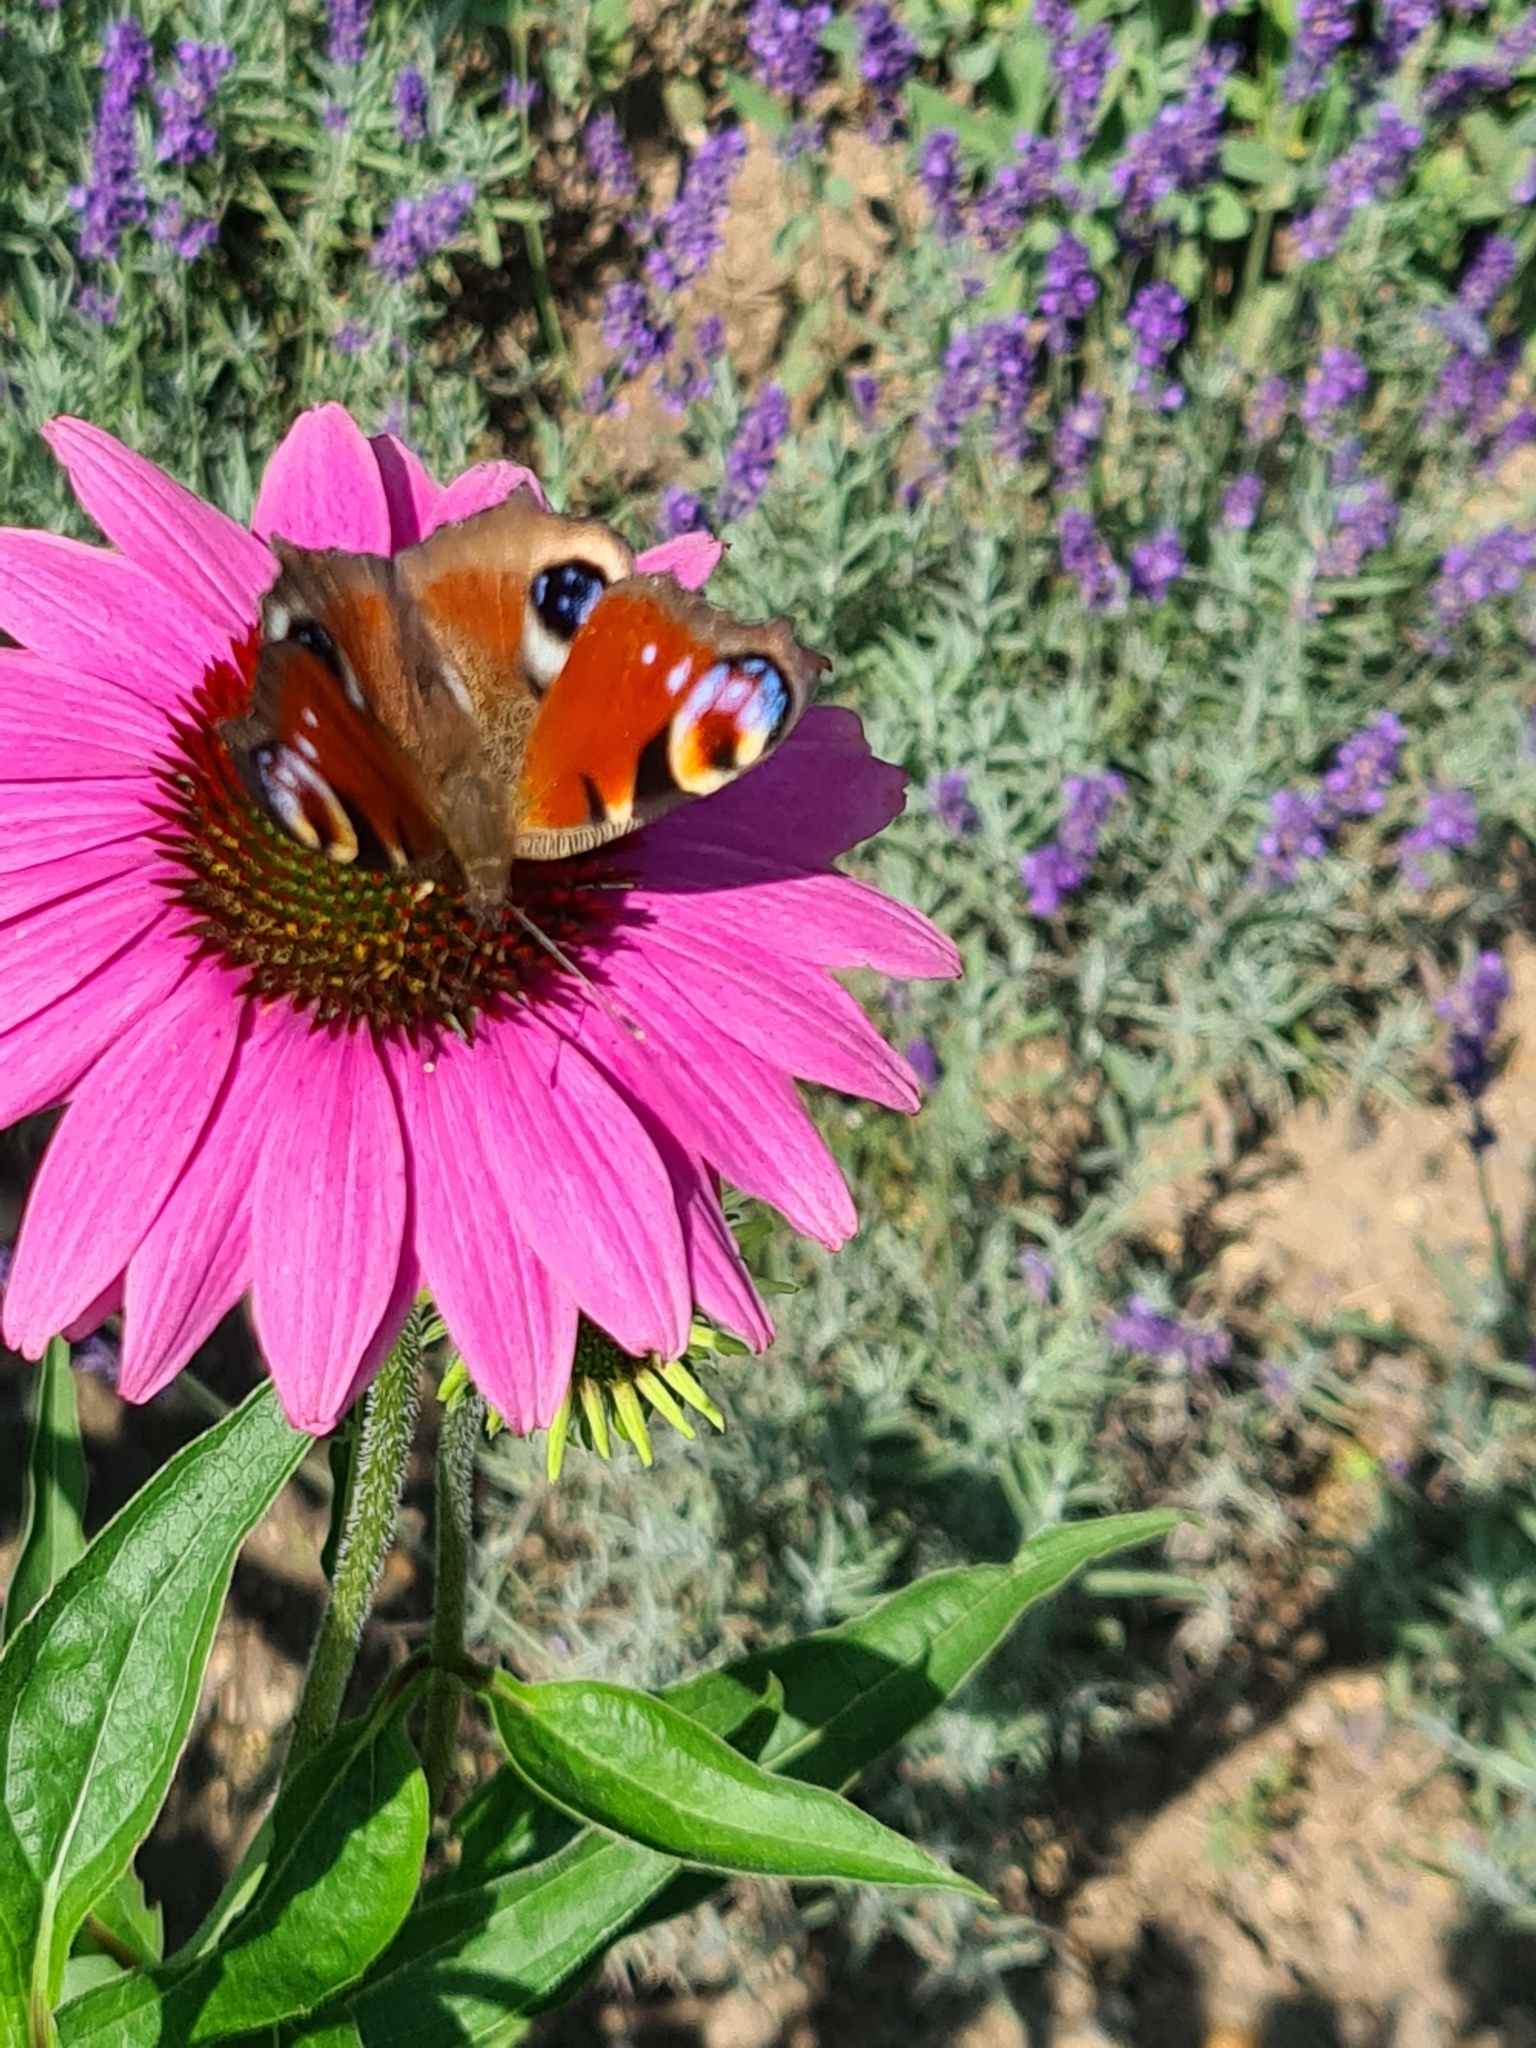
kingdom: Animalia
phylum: Arthropoda
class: Insecta
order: Lepidoptera
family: Nymphalidae
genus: Aglais
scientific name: Aglais io
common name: Peacock
